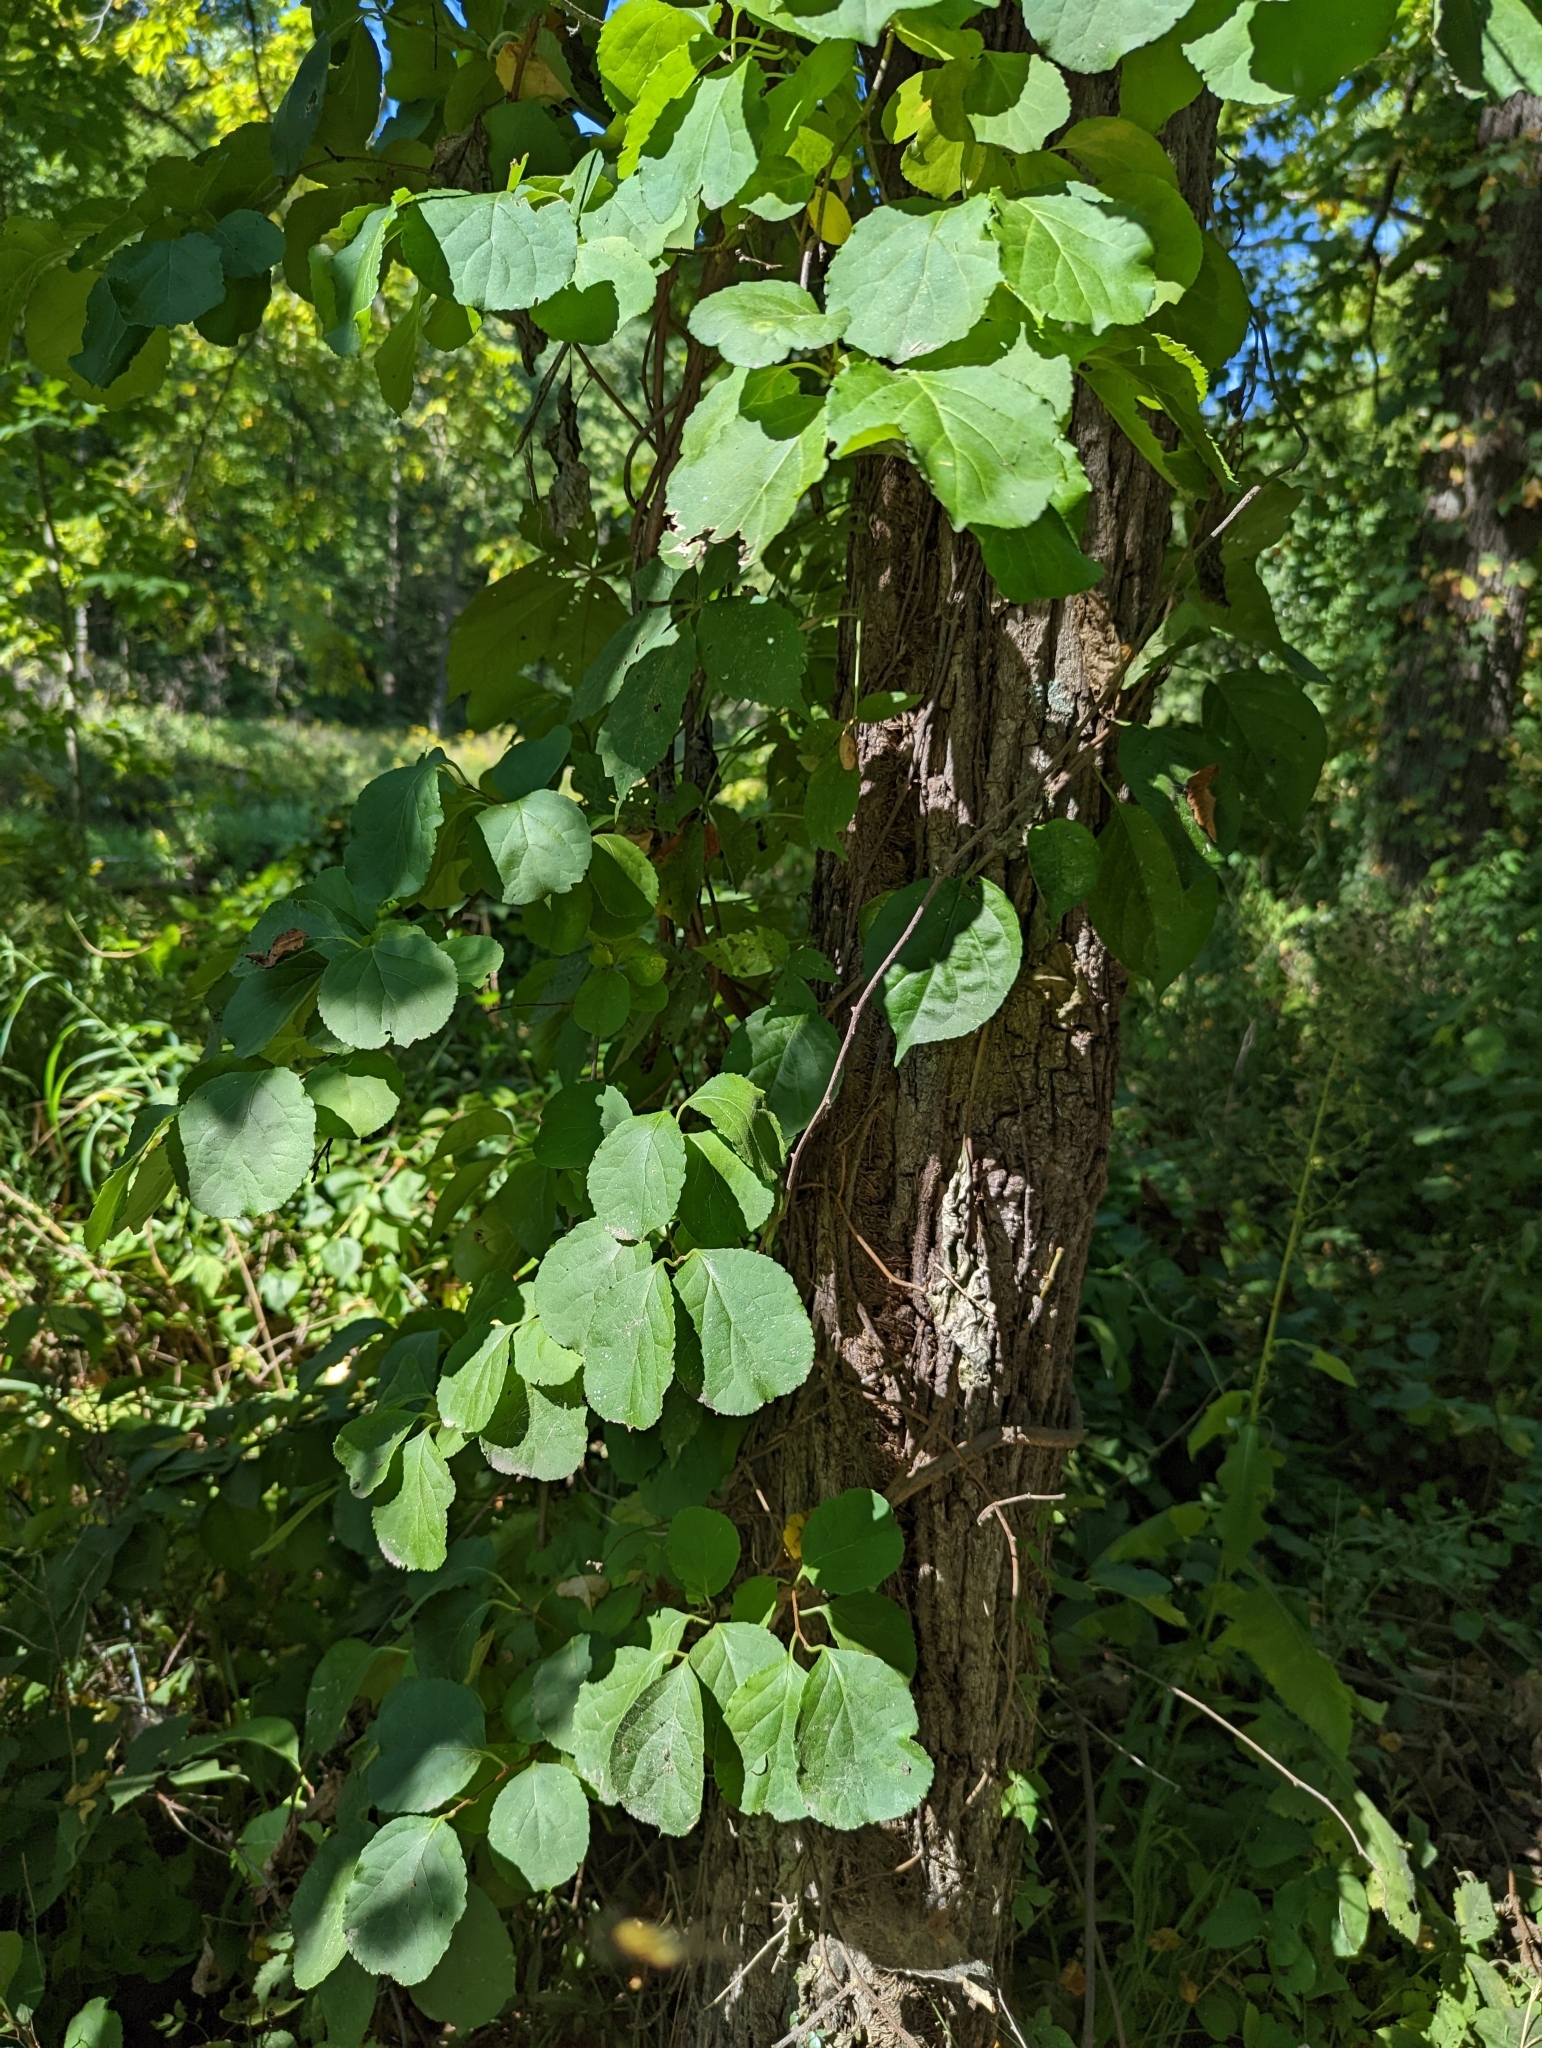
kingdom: Plantae
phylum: Tracheophyta
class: Magnoliopsida
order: Celastrales
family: Celastraceae
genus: Celastrus
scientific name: Celastrus orbiculatus
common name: Oriental bittersweet
